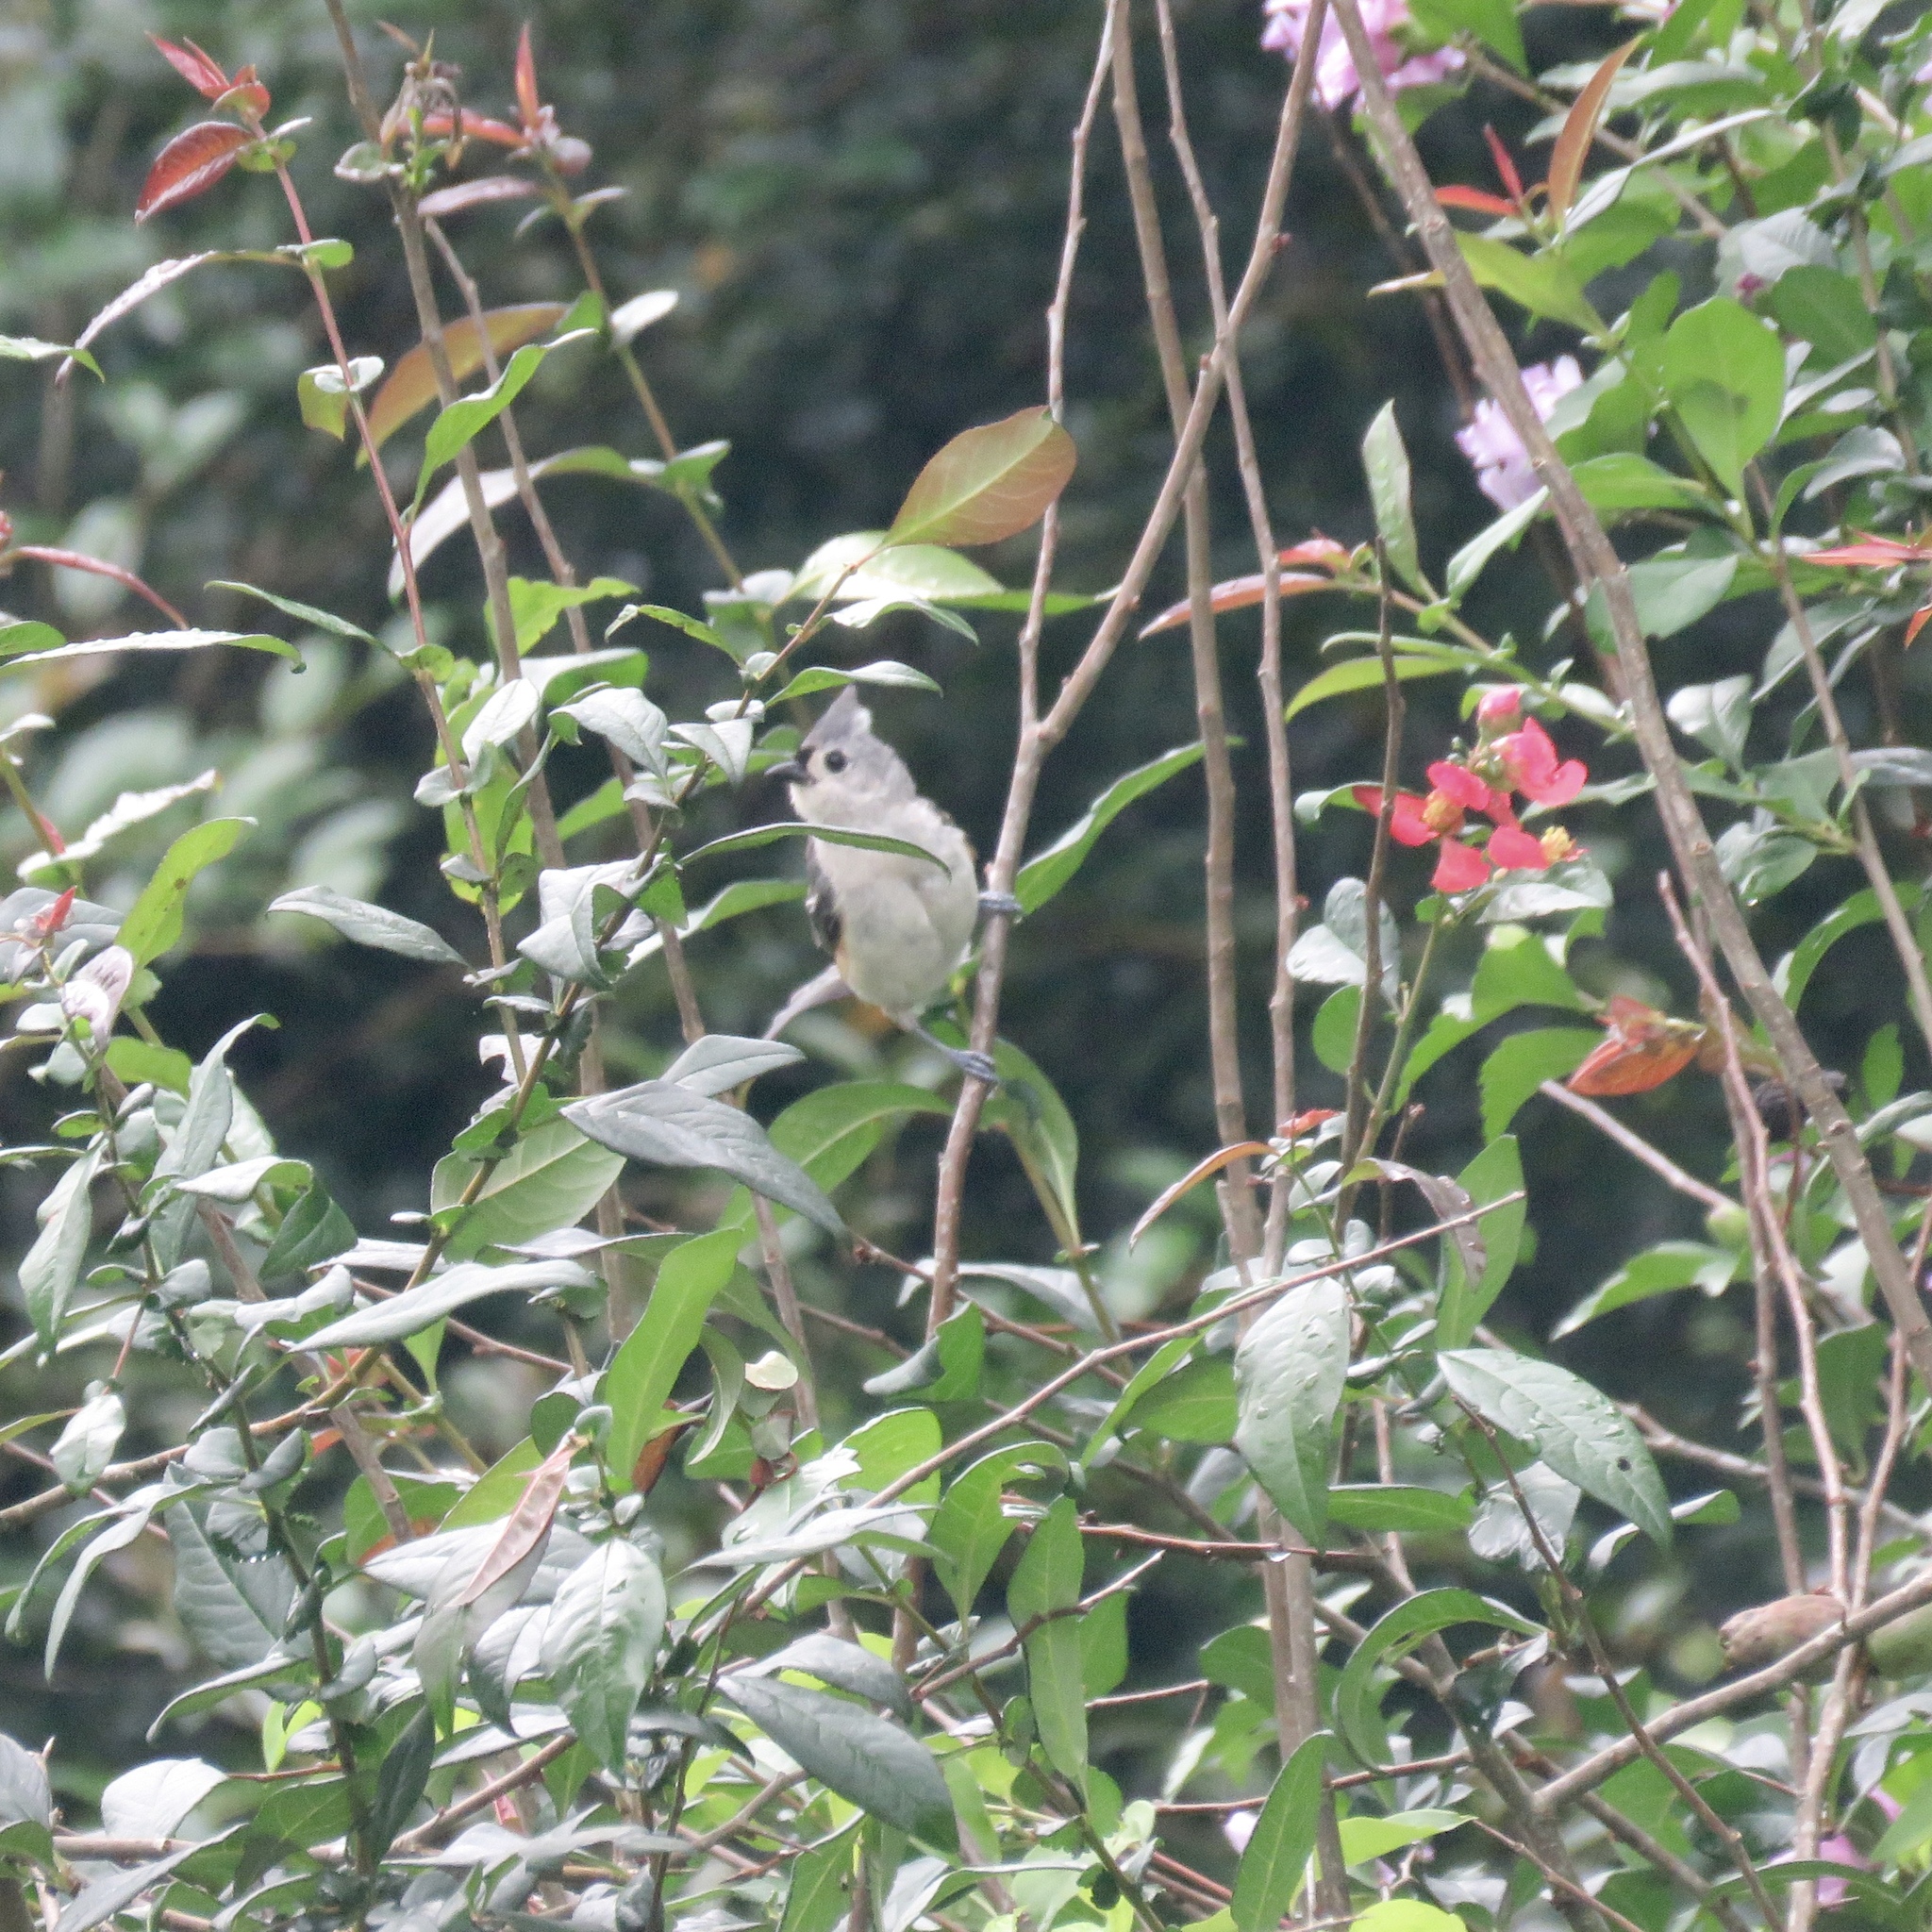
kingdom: Animalia
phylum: Chordata
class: Aves
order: Passeriformes
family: Paridae
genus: Baeolophus
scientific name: Baeolophus bicolor
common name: Tufted titmouse
